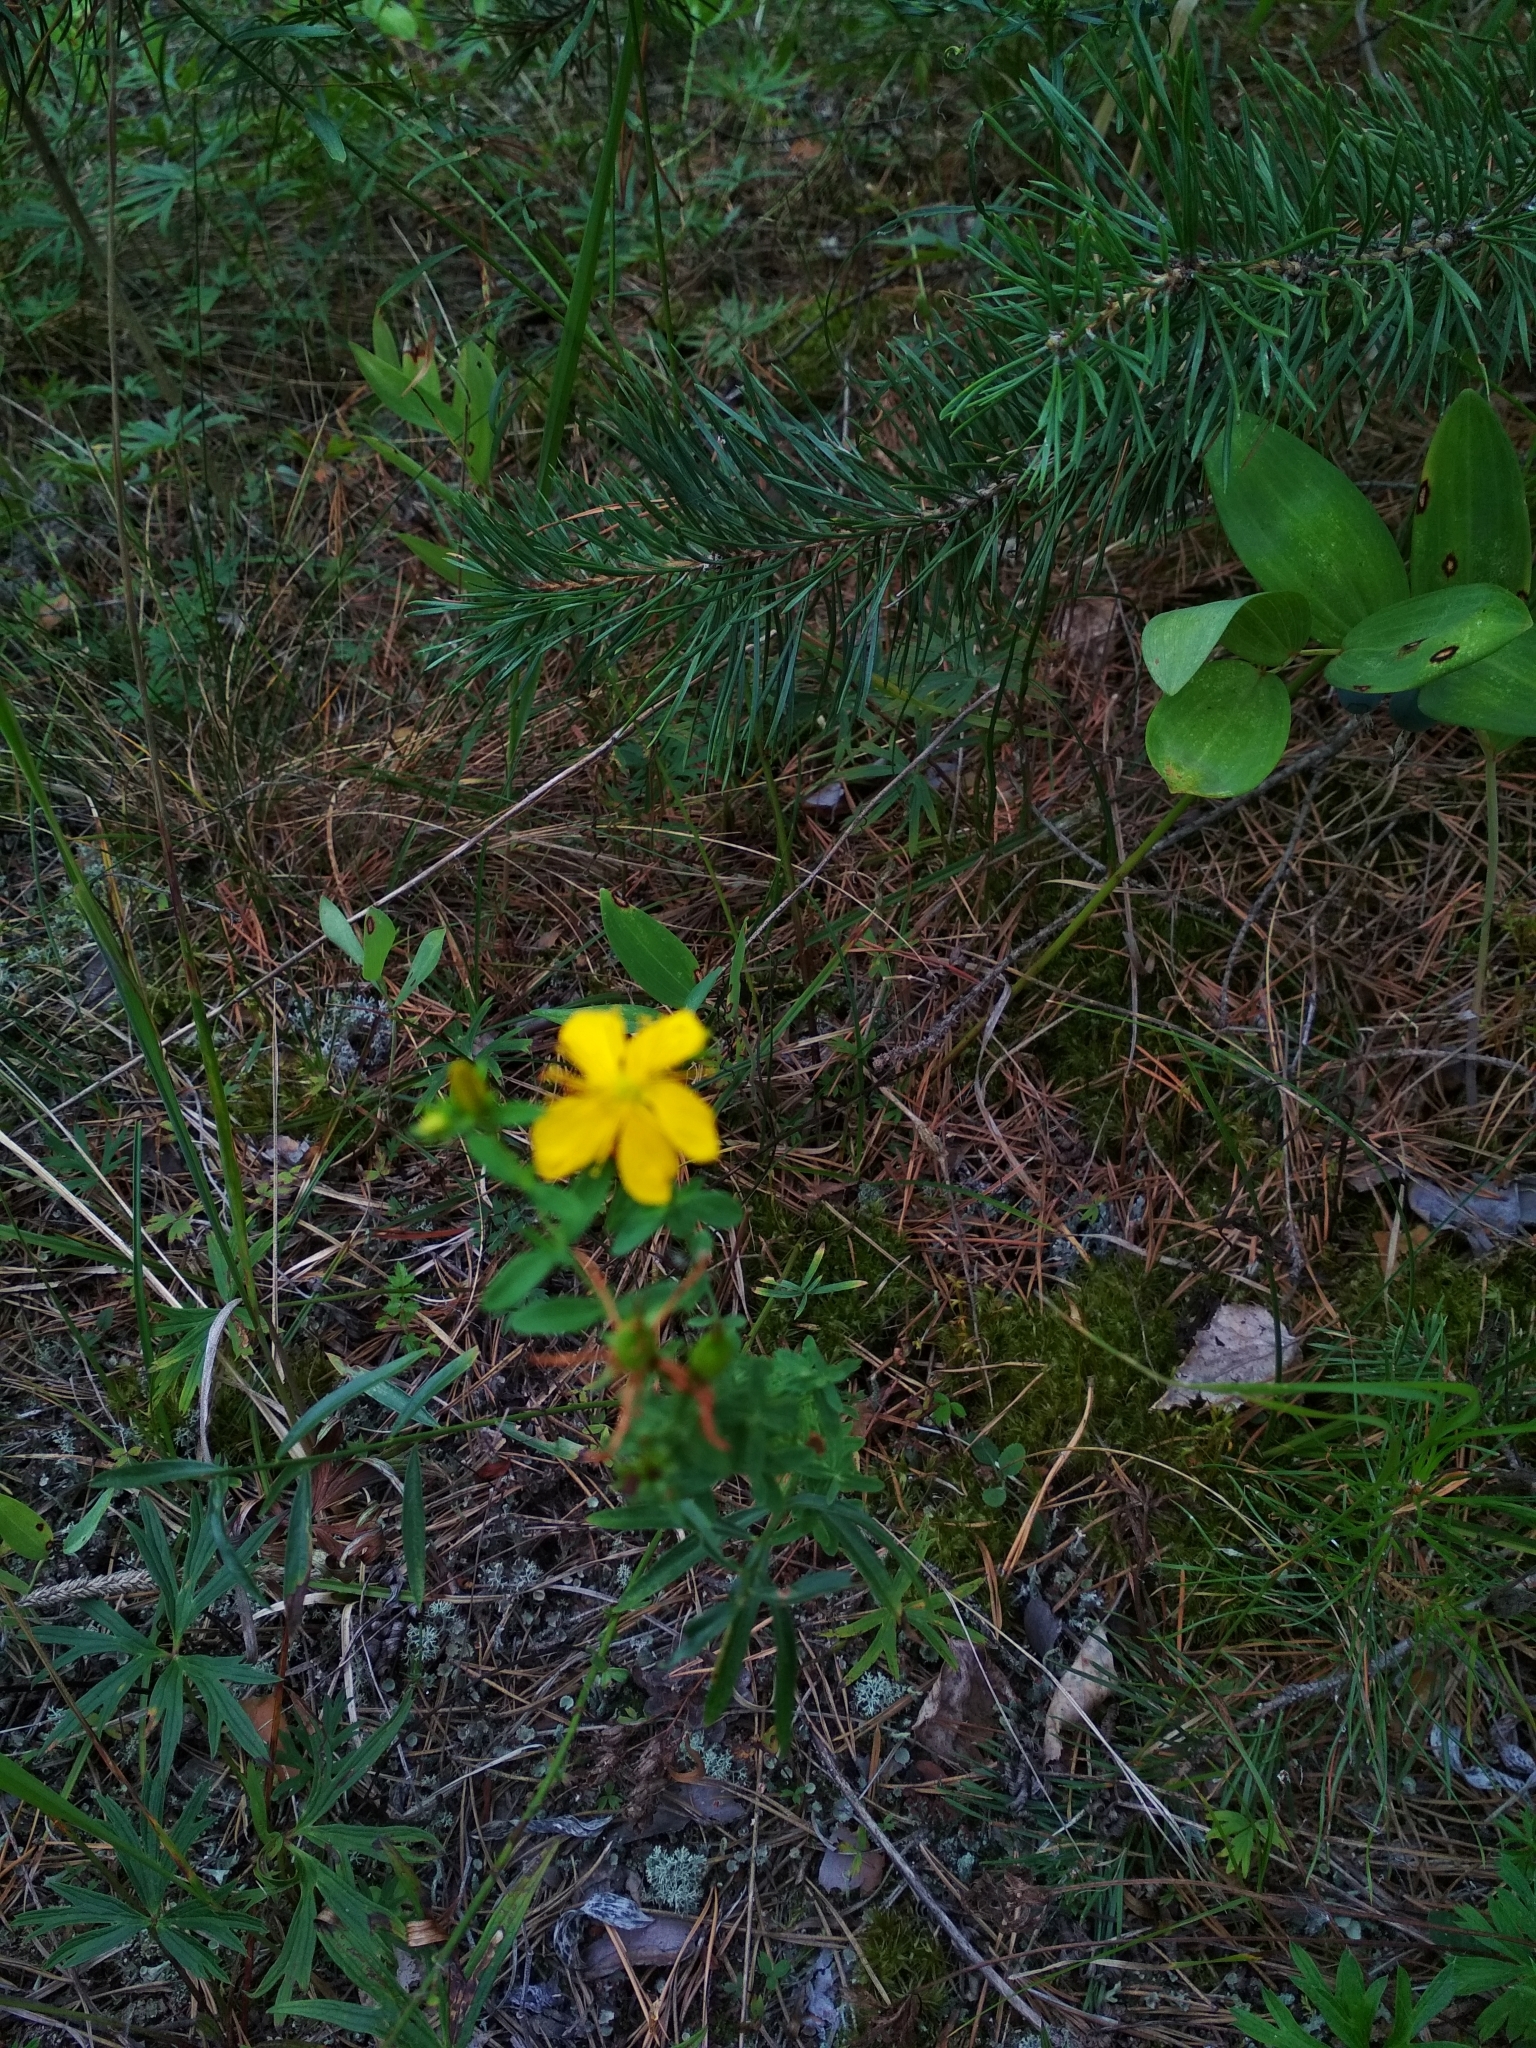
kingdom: Plantae
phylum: Tracheophyta
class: Magnoliopsida
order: Malpighiales
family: Hypericaceae
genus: Hypericum
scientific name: Hypericum perforatum
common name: Common st. johnswort
